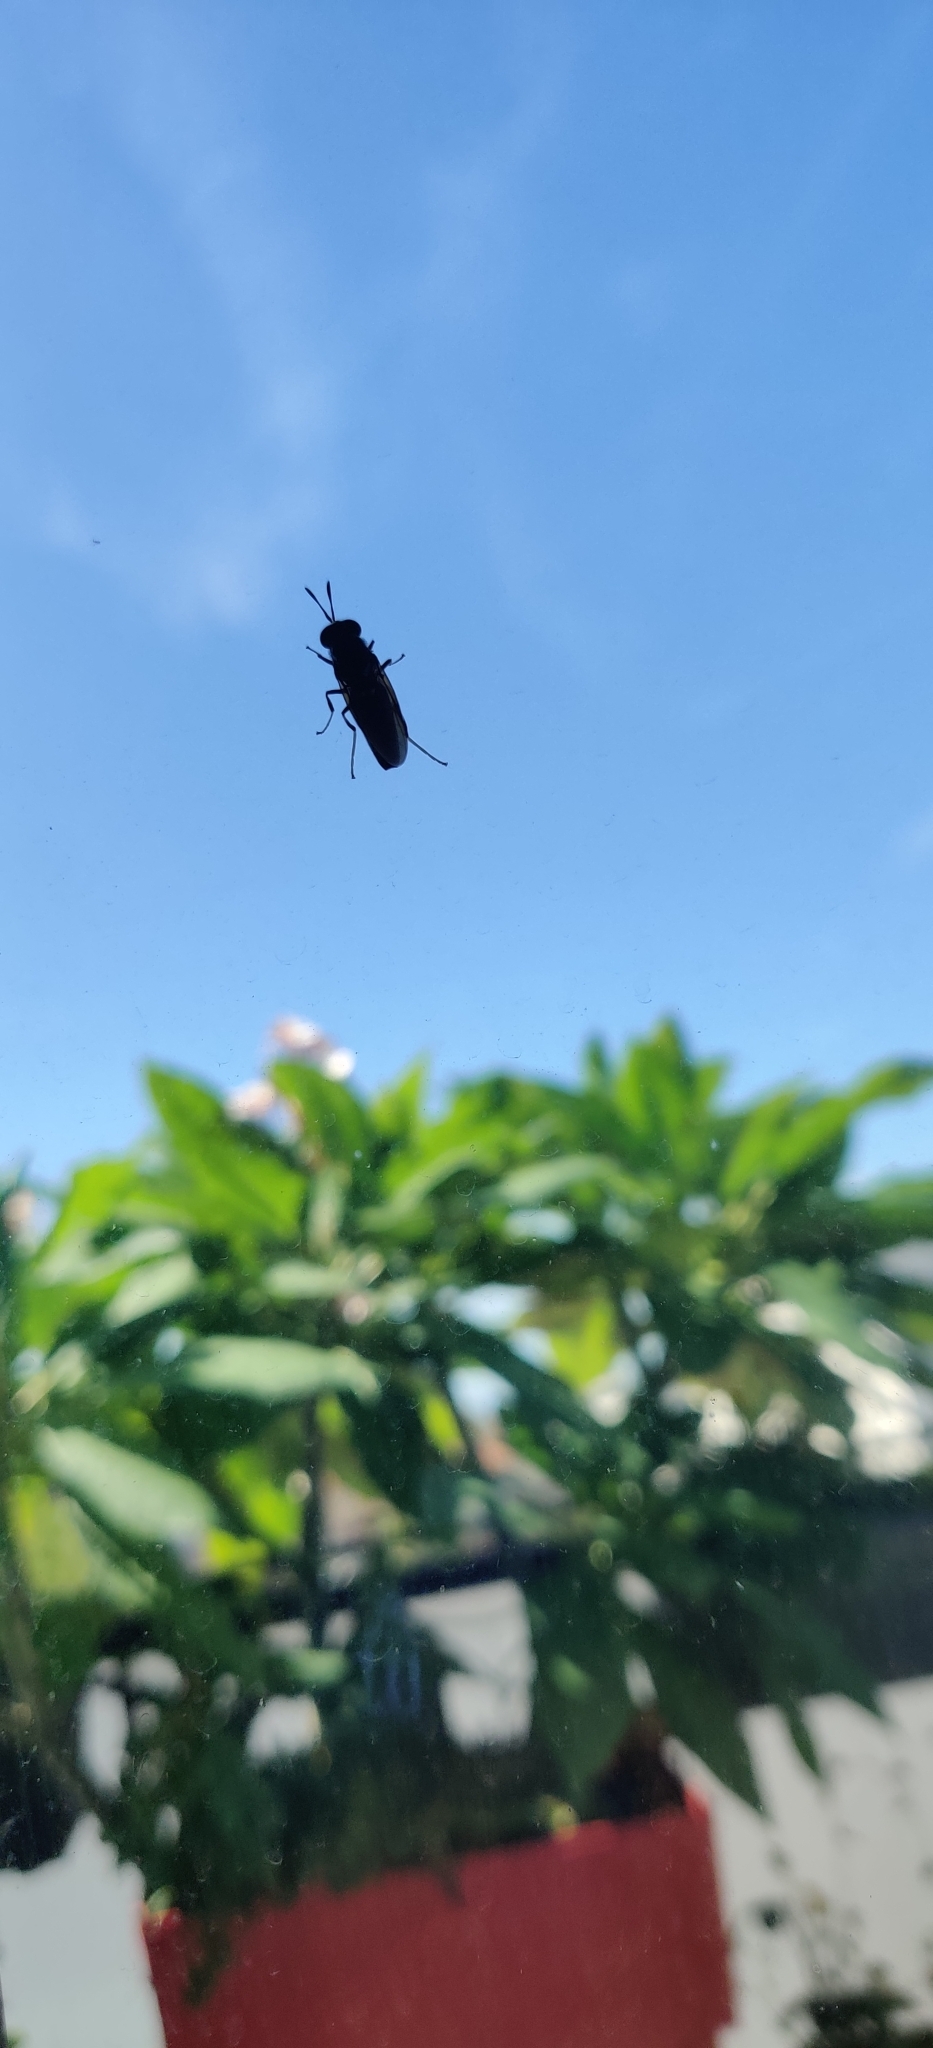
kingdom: Animalia
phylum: Arthropoda
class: Insecta
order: Diptera
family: Stratiomyidae
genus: Hermetia
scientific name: Hermetia illucens
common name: Black soldier fly
